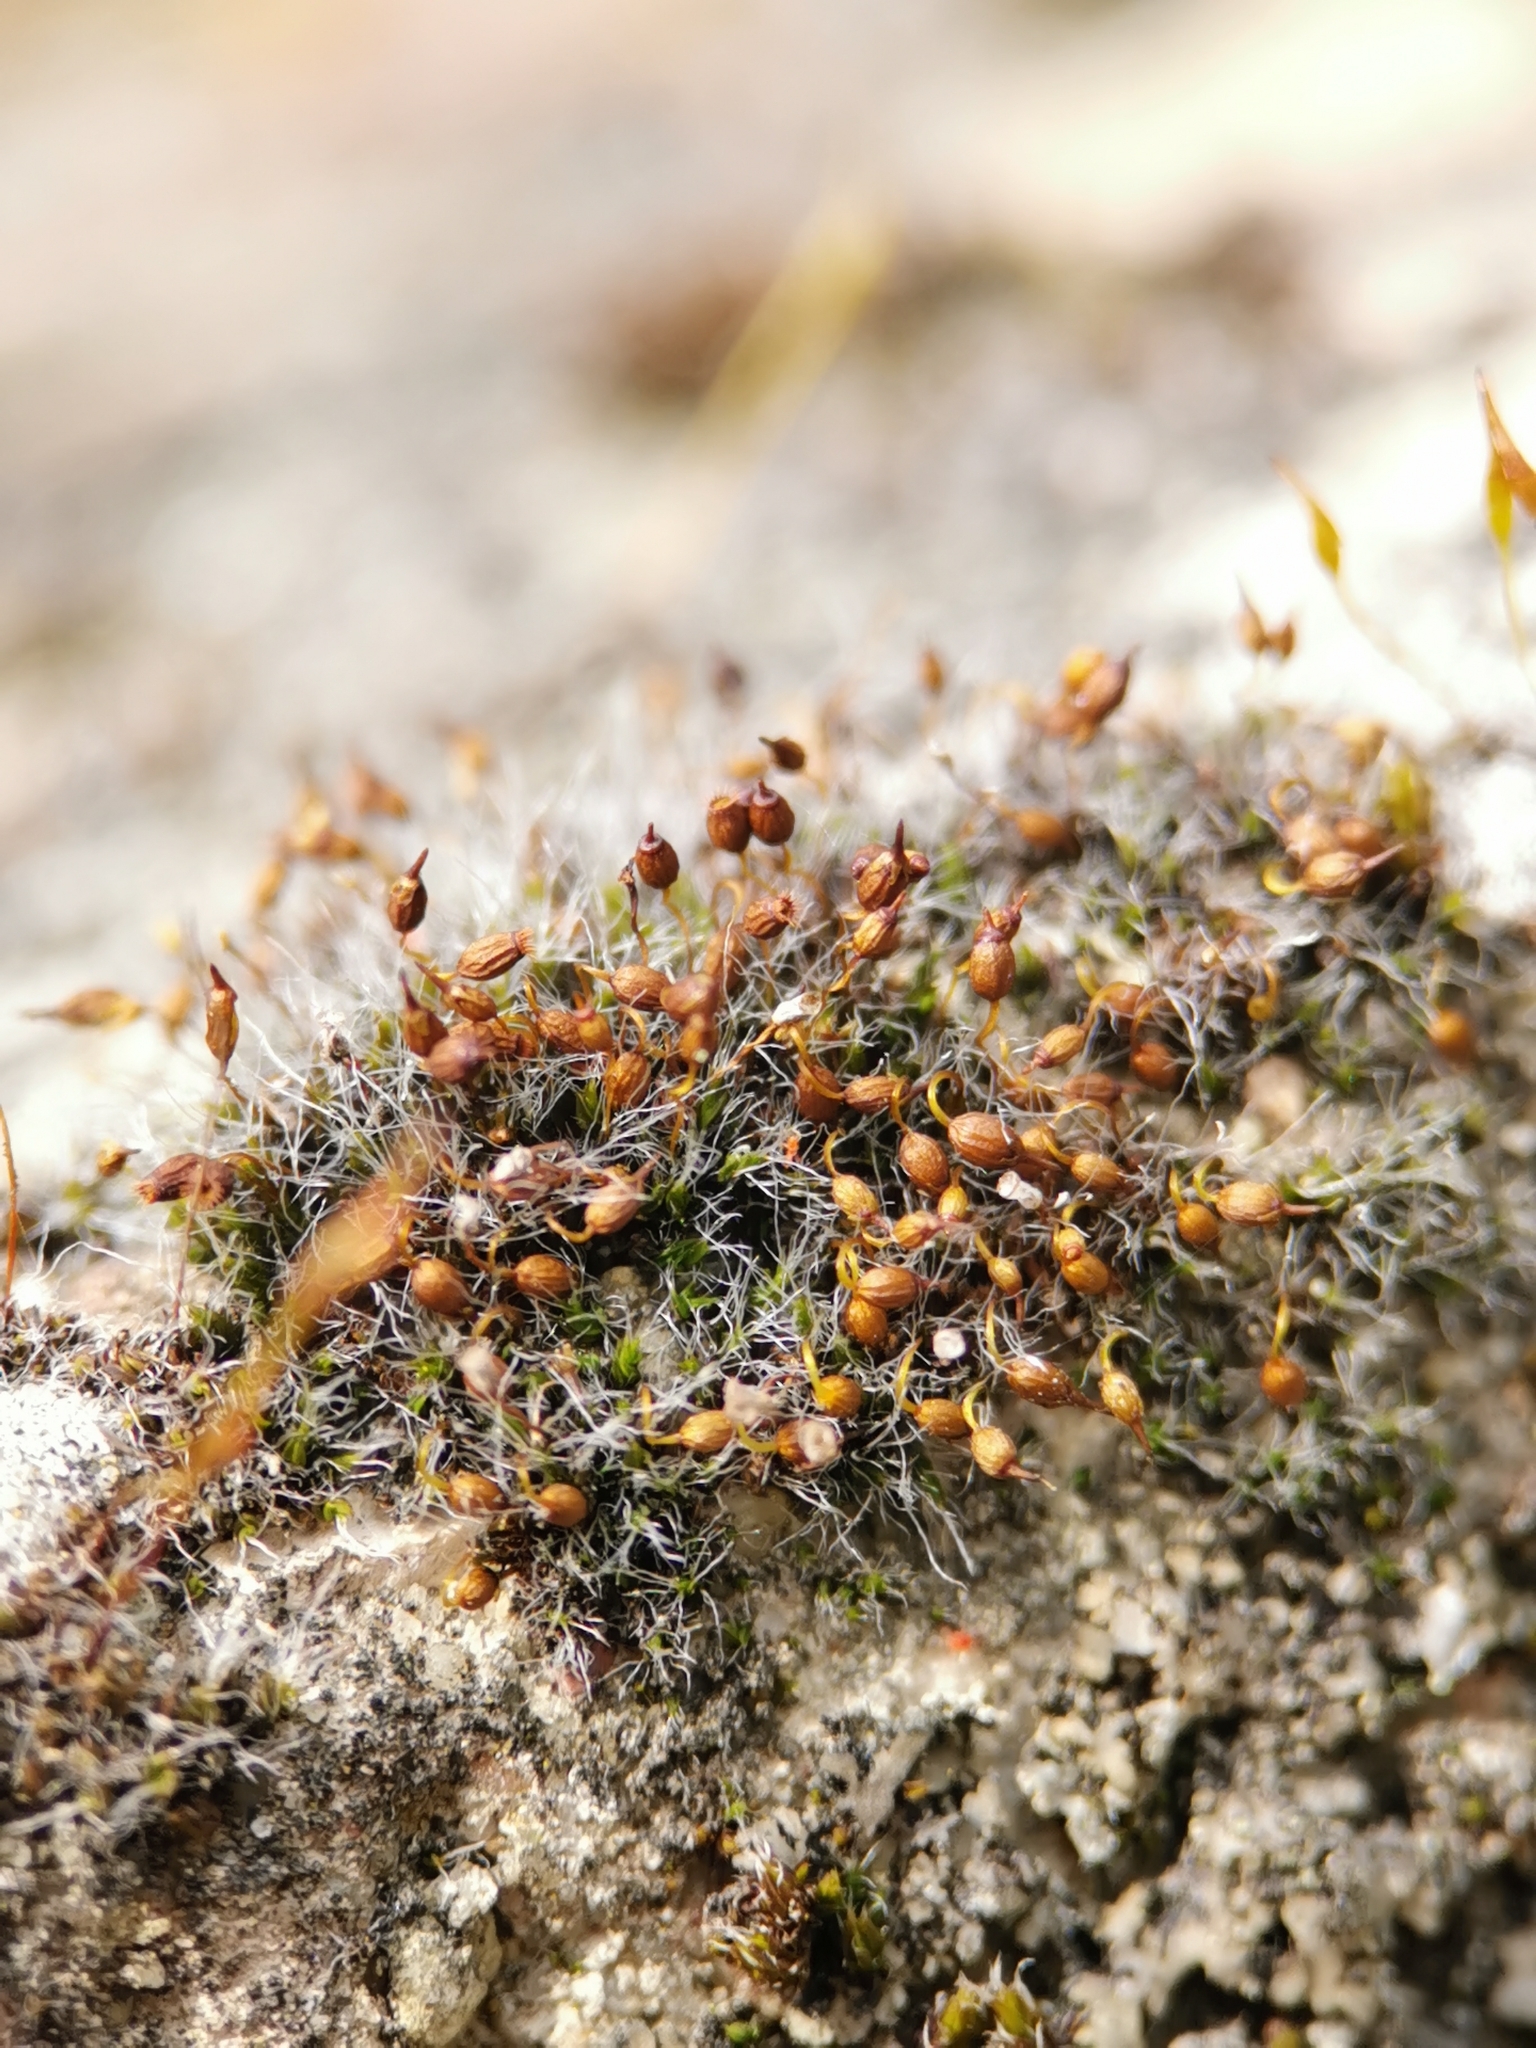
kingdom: Plantae
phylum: Bryophyta
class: Bryopsida
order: Grimmiales
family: Grimmiaceae
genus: Grimmia
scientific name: Grimmia pulvinata
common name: Grey-cushioned grimmia
